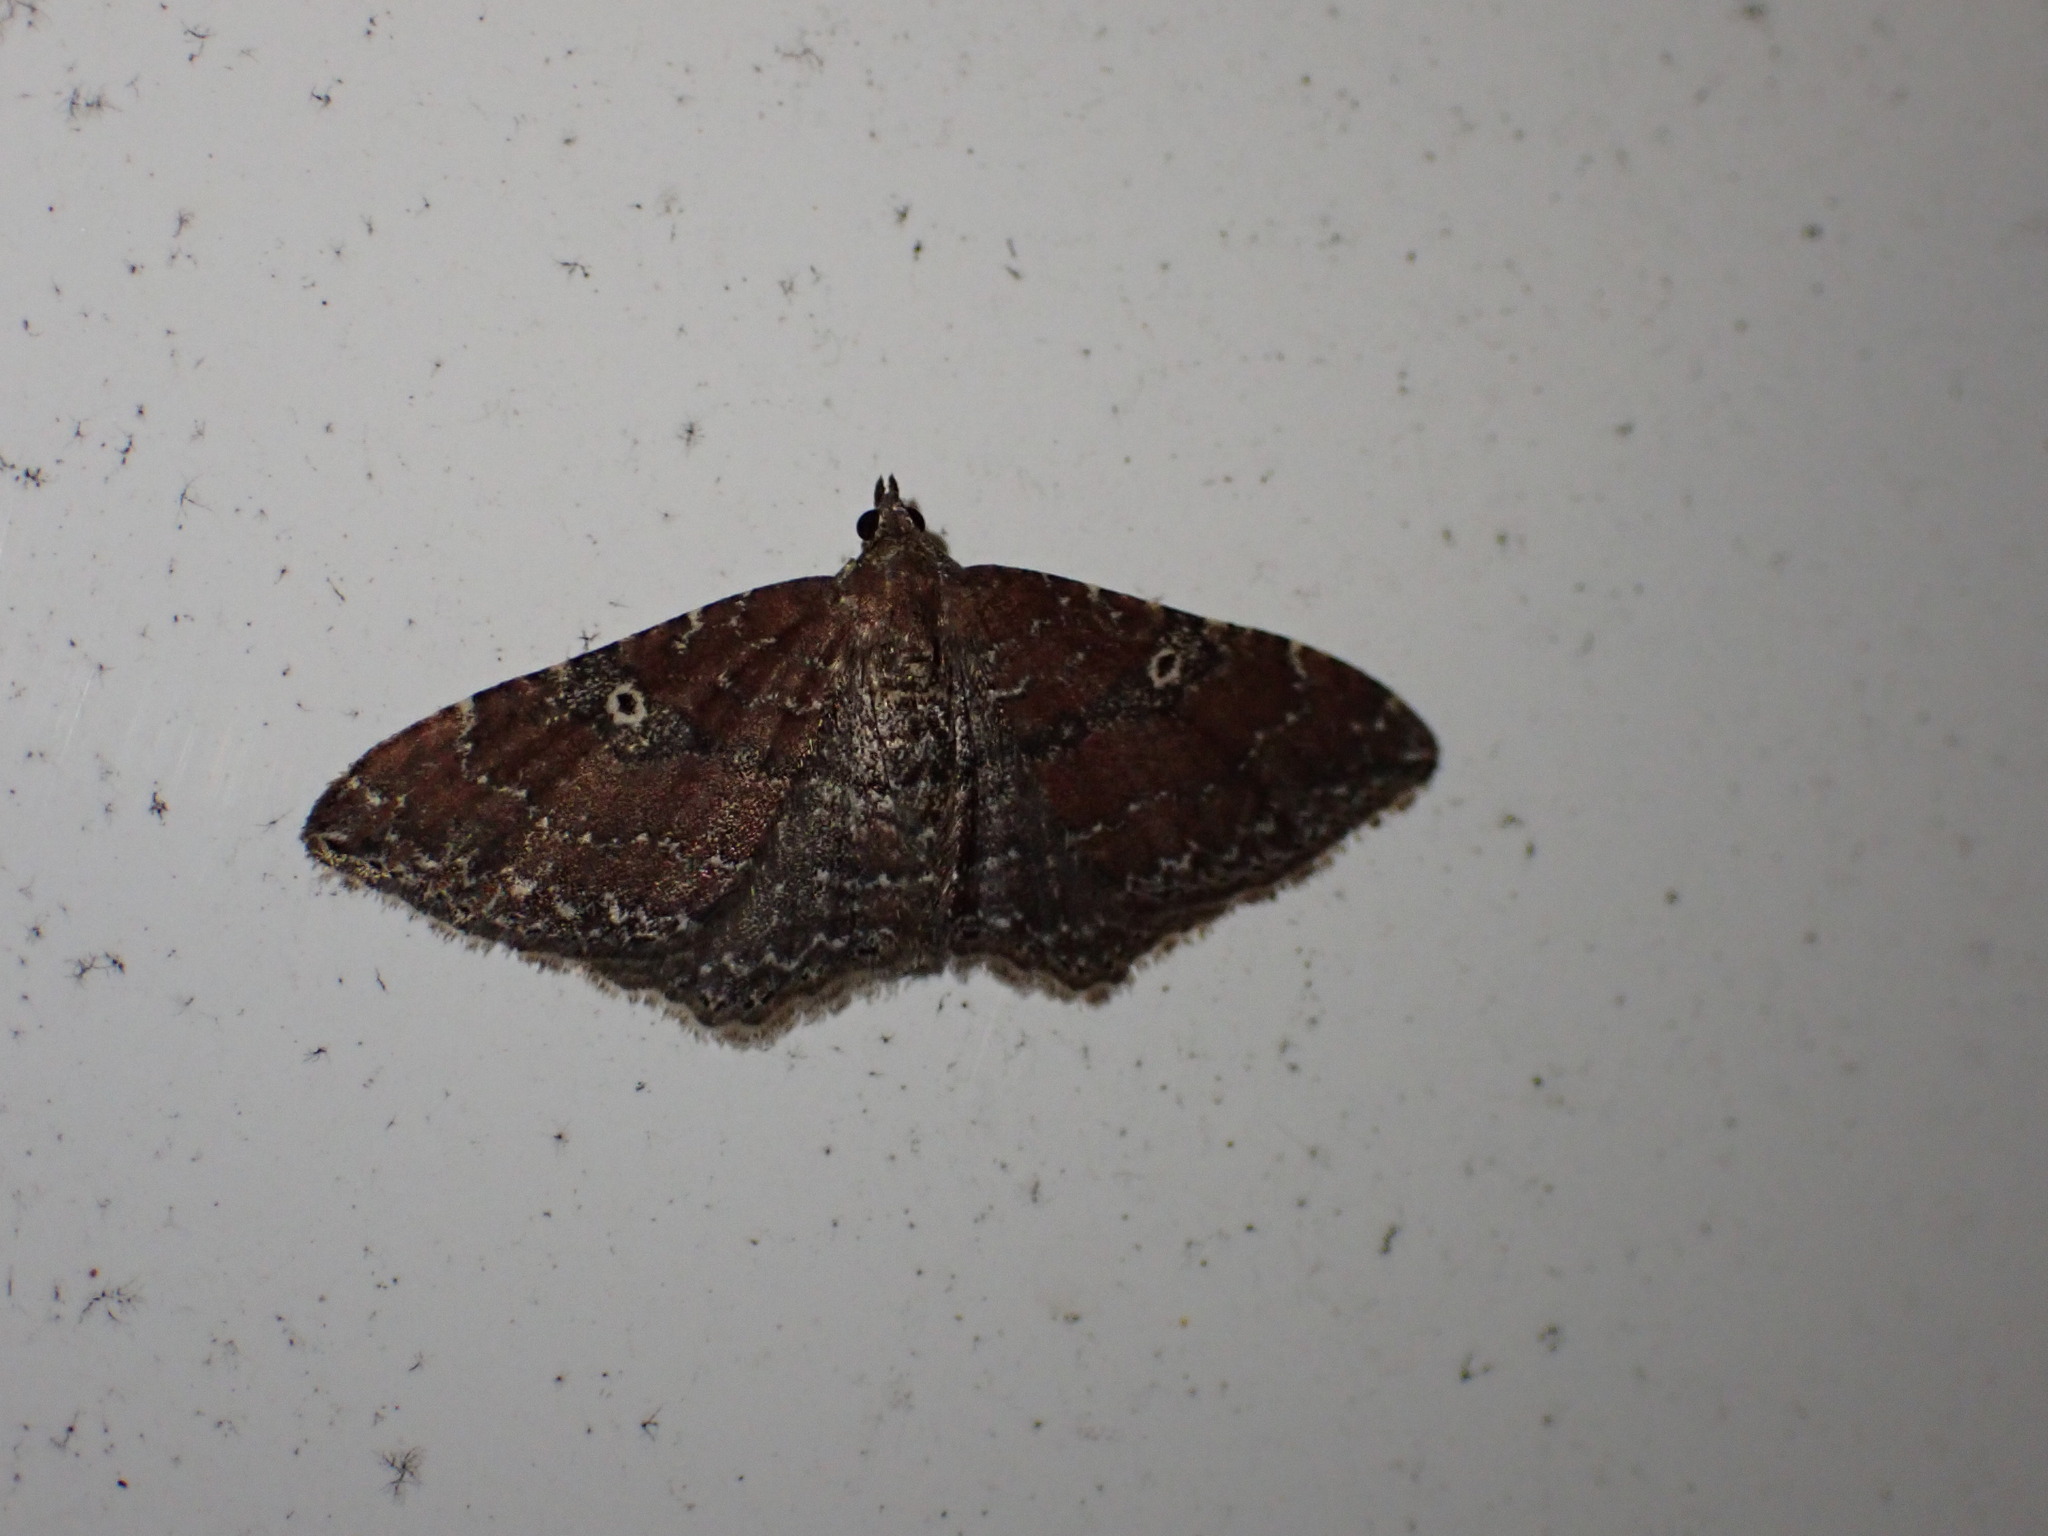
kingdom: Animalia
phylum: Arthropoda
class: Insecta
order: Lepidoptera
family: Geometridae
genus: Orthonama
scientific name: Orthonama obstipata
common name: The gem
